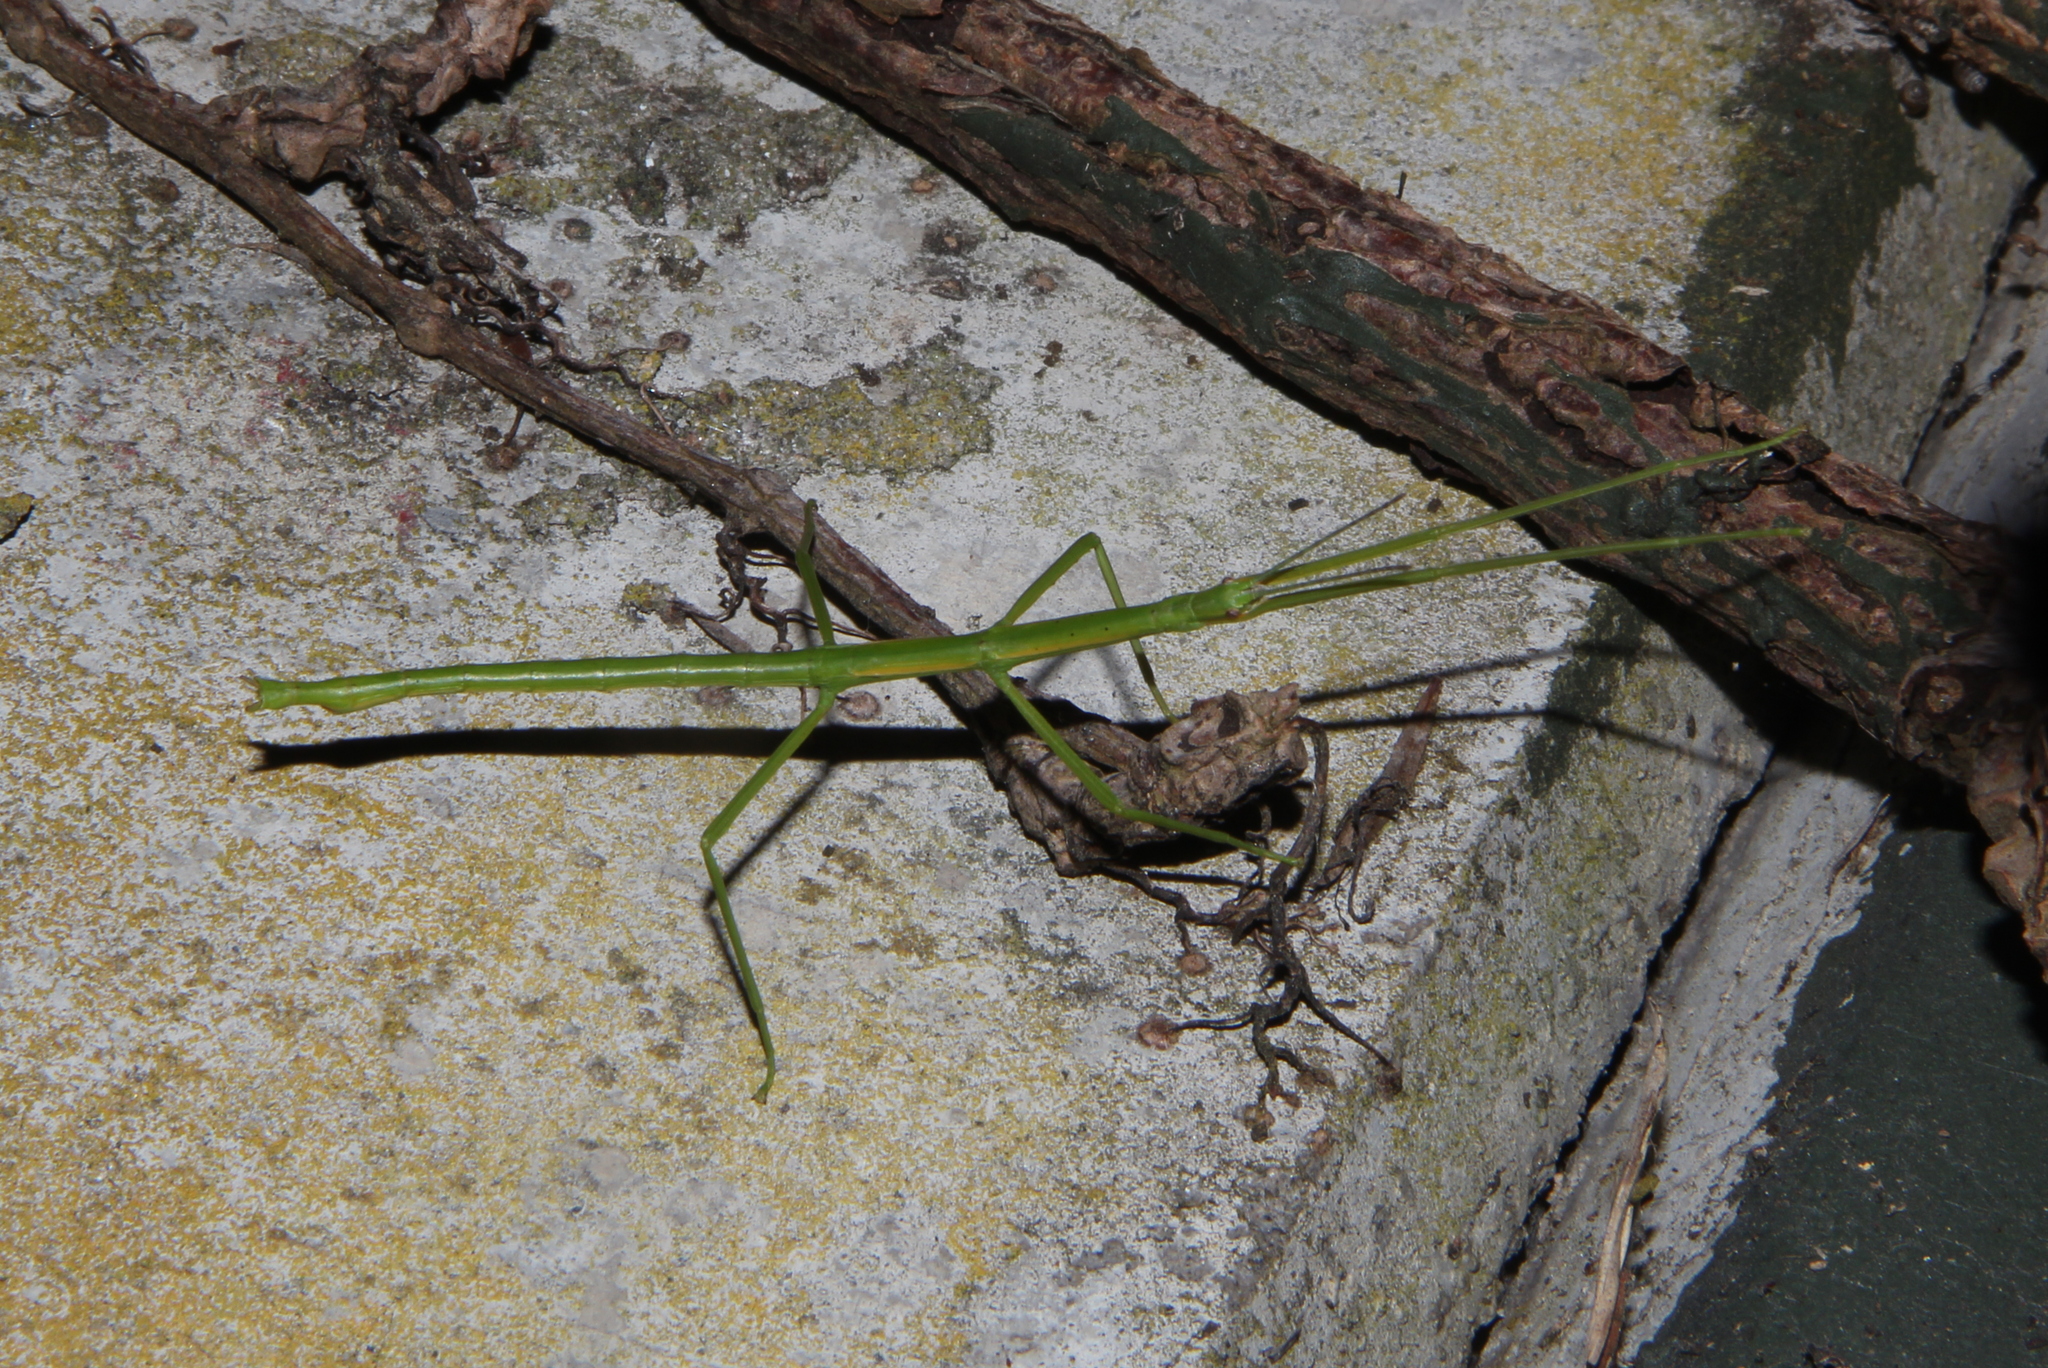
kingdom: Animalia
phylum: Arthropoda
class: Insecta
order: Phasmida
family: Phasmatidae
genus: Clitarchus
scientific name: Clitarchus hookeri
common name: Smooth stick insect
